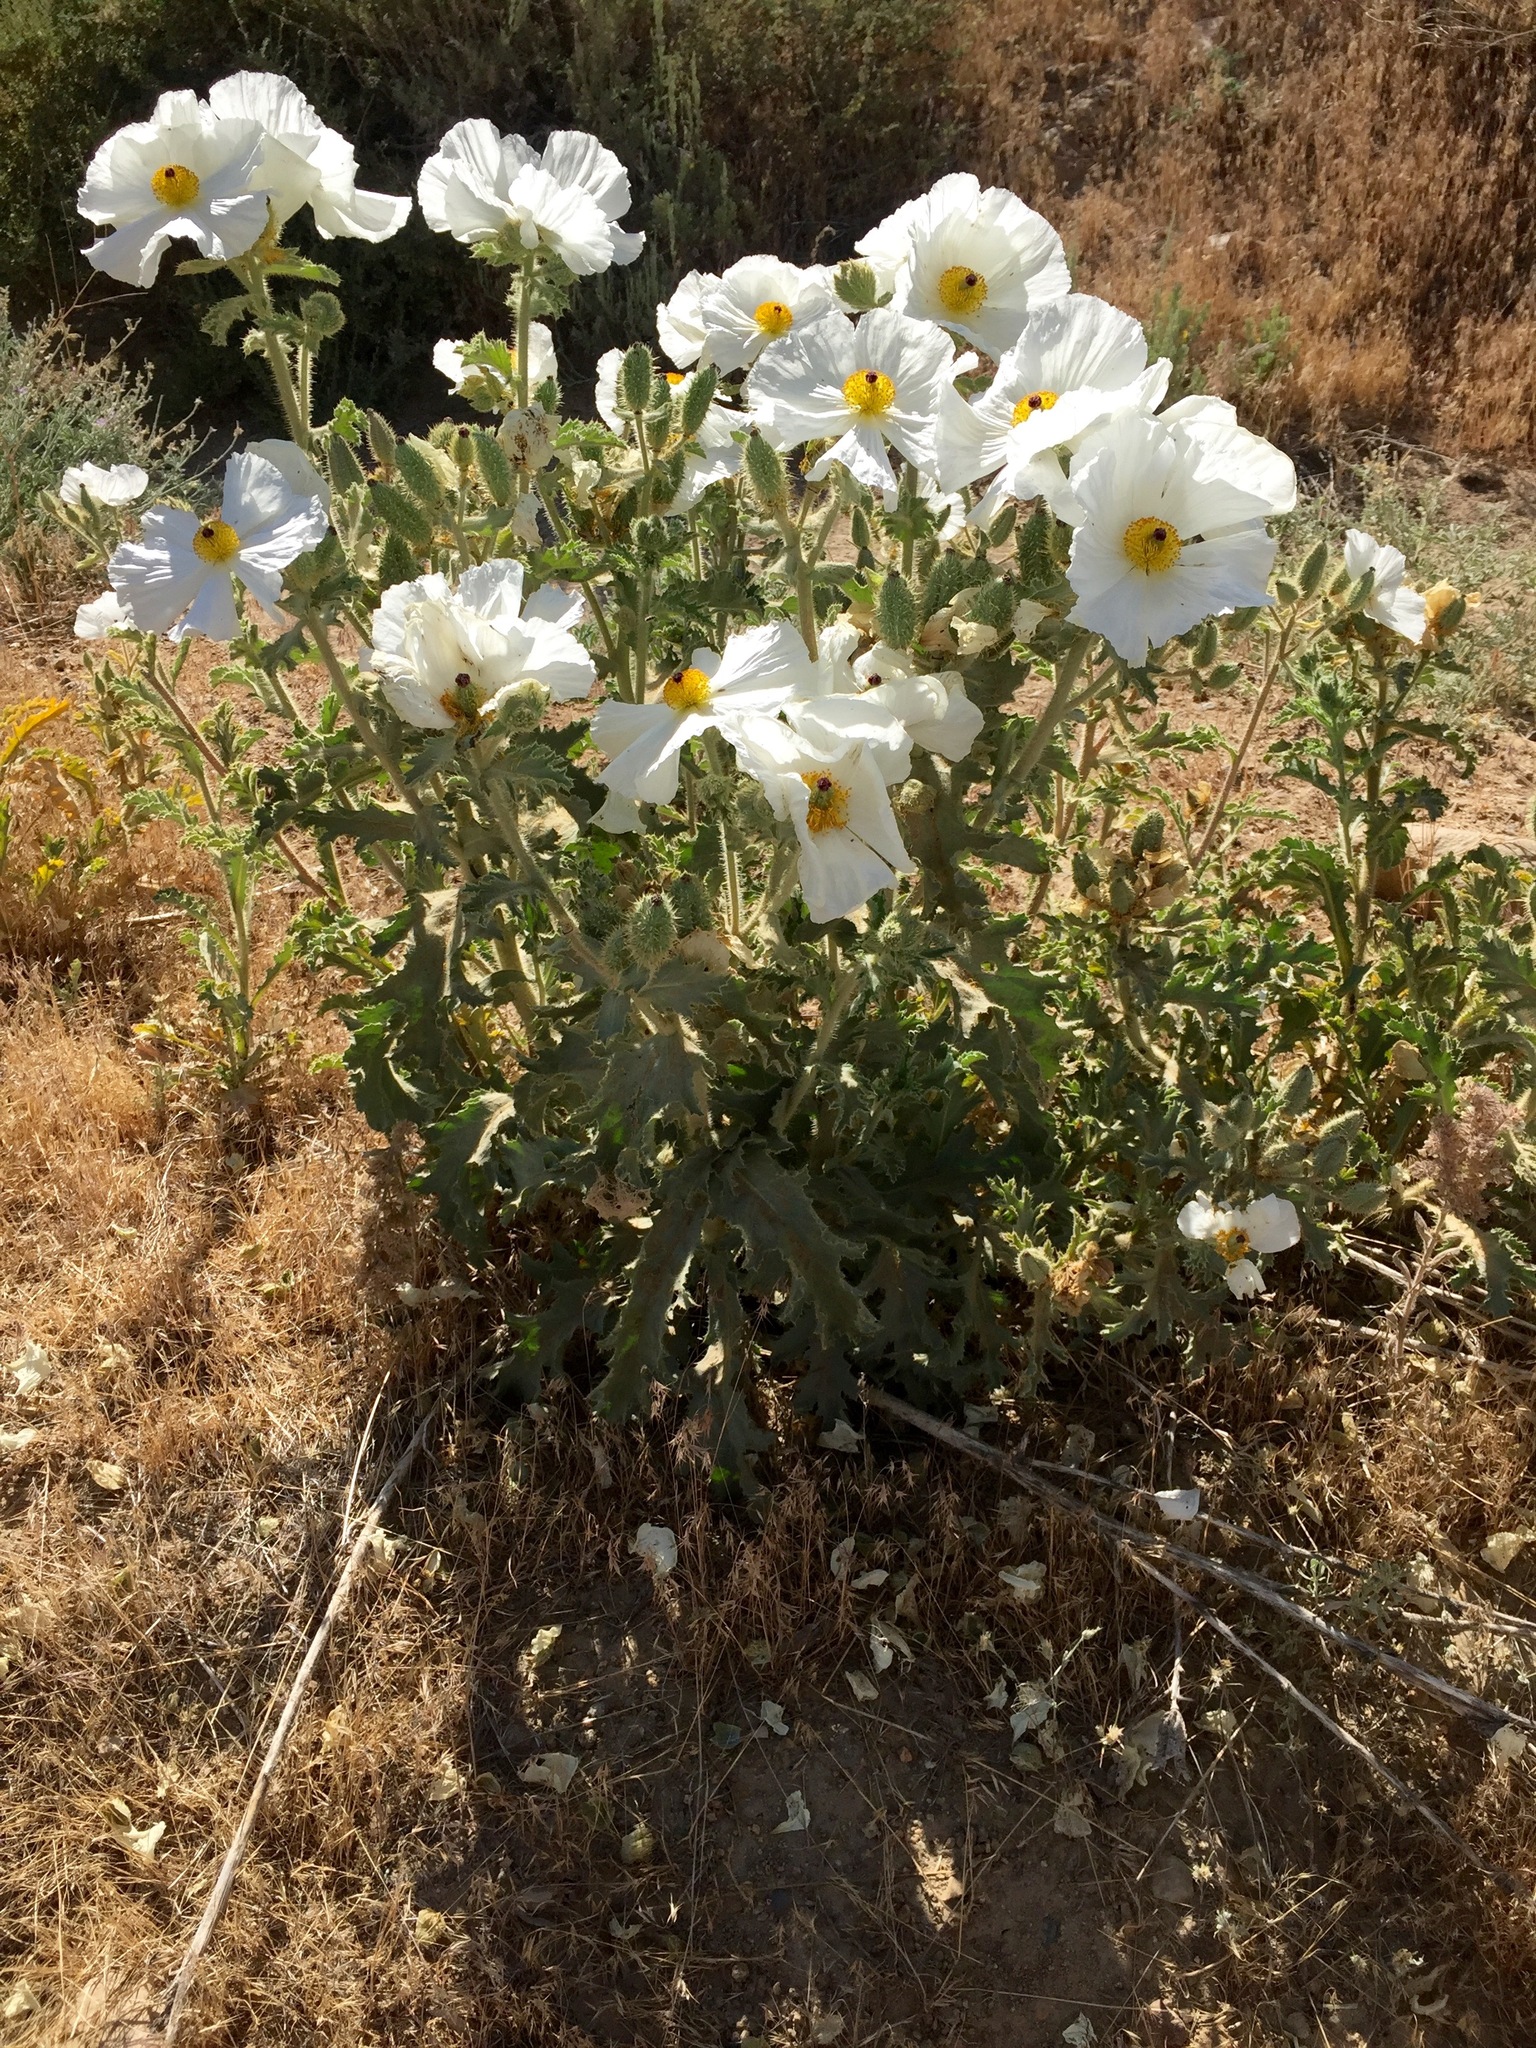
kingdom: Plantae
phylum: Tracheophyta
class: Magnoliopsida
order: Ranunculales
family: Papaveraceae
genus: Argemone
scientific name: Argemone munita
